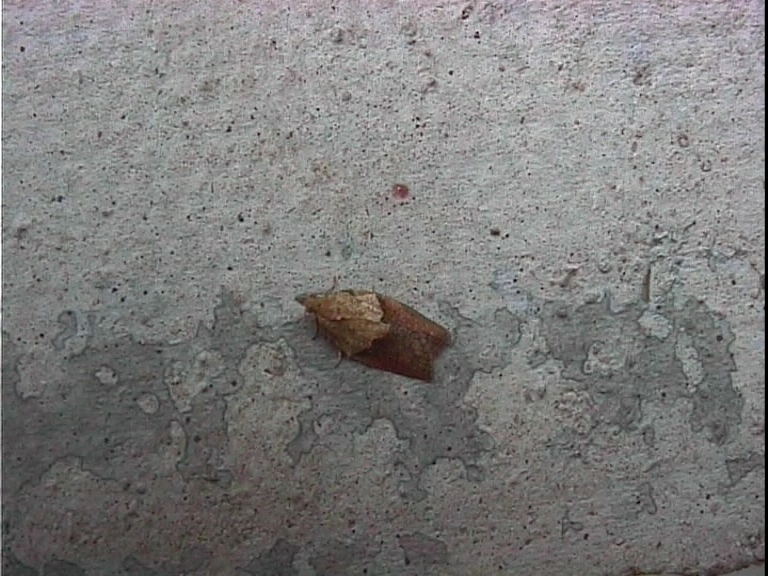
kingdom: Animalia
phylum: Arthropoda
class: Insecta
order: Lepidoptera
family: Tortricidae
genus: Epiphyas
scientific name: Epiphyas postvittana
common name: Light brown apple moth
